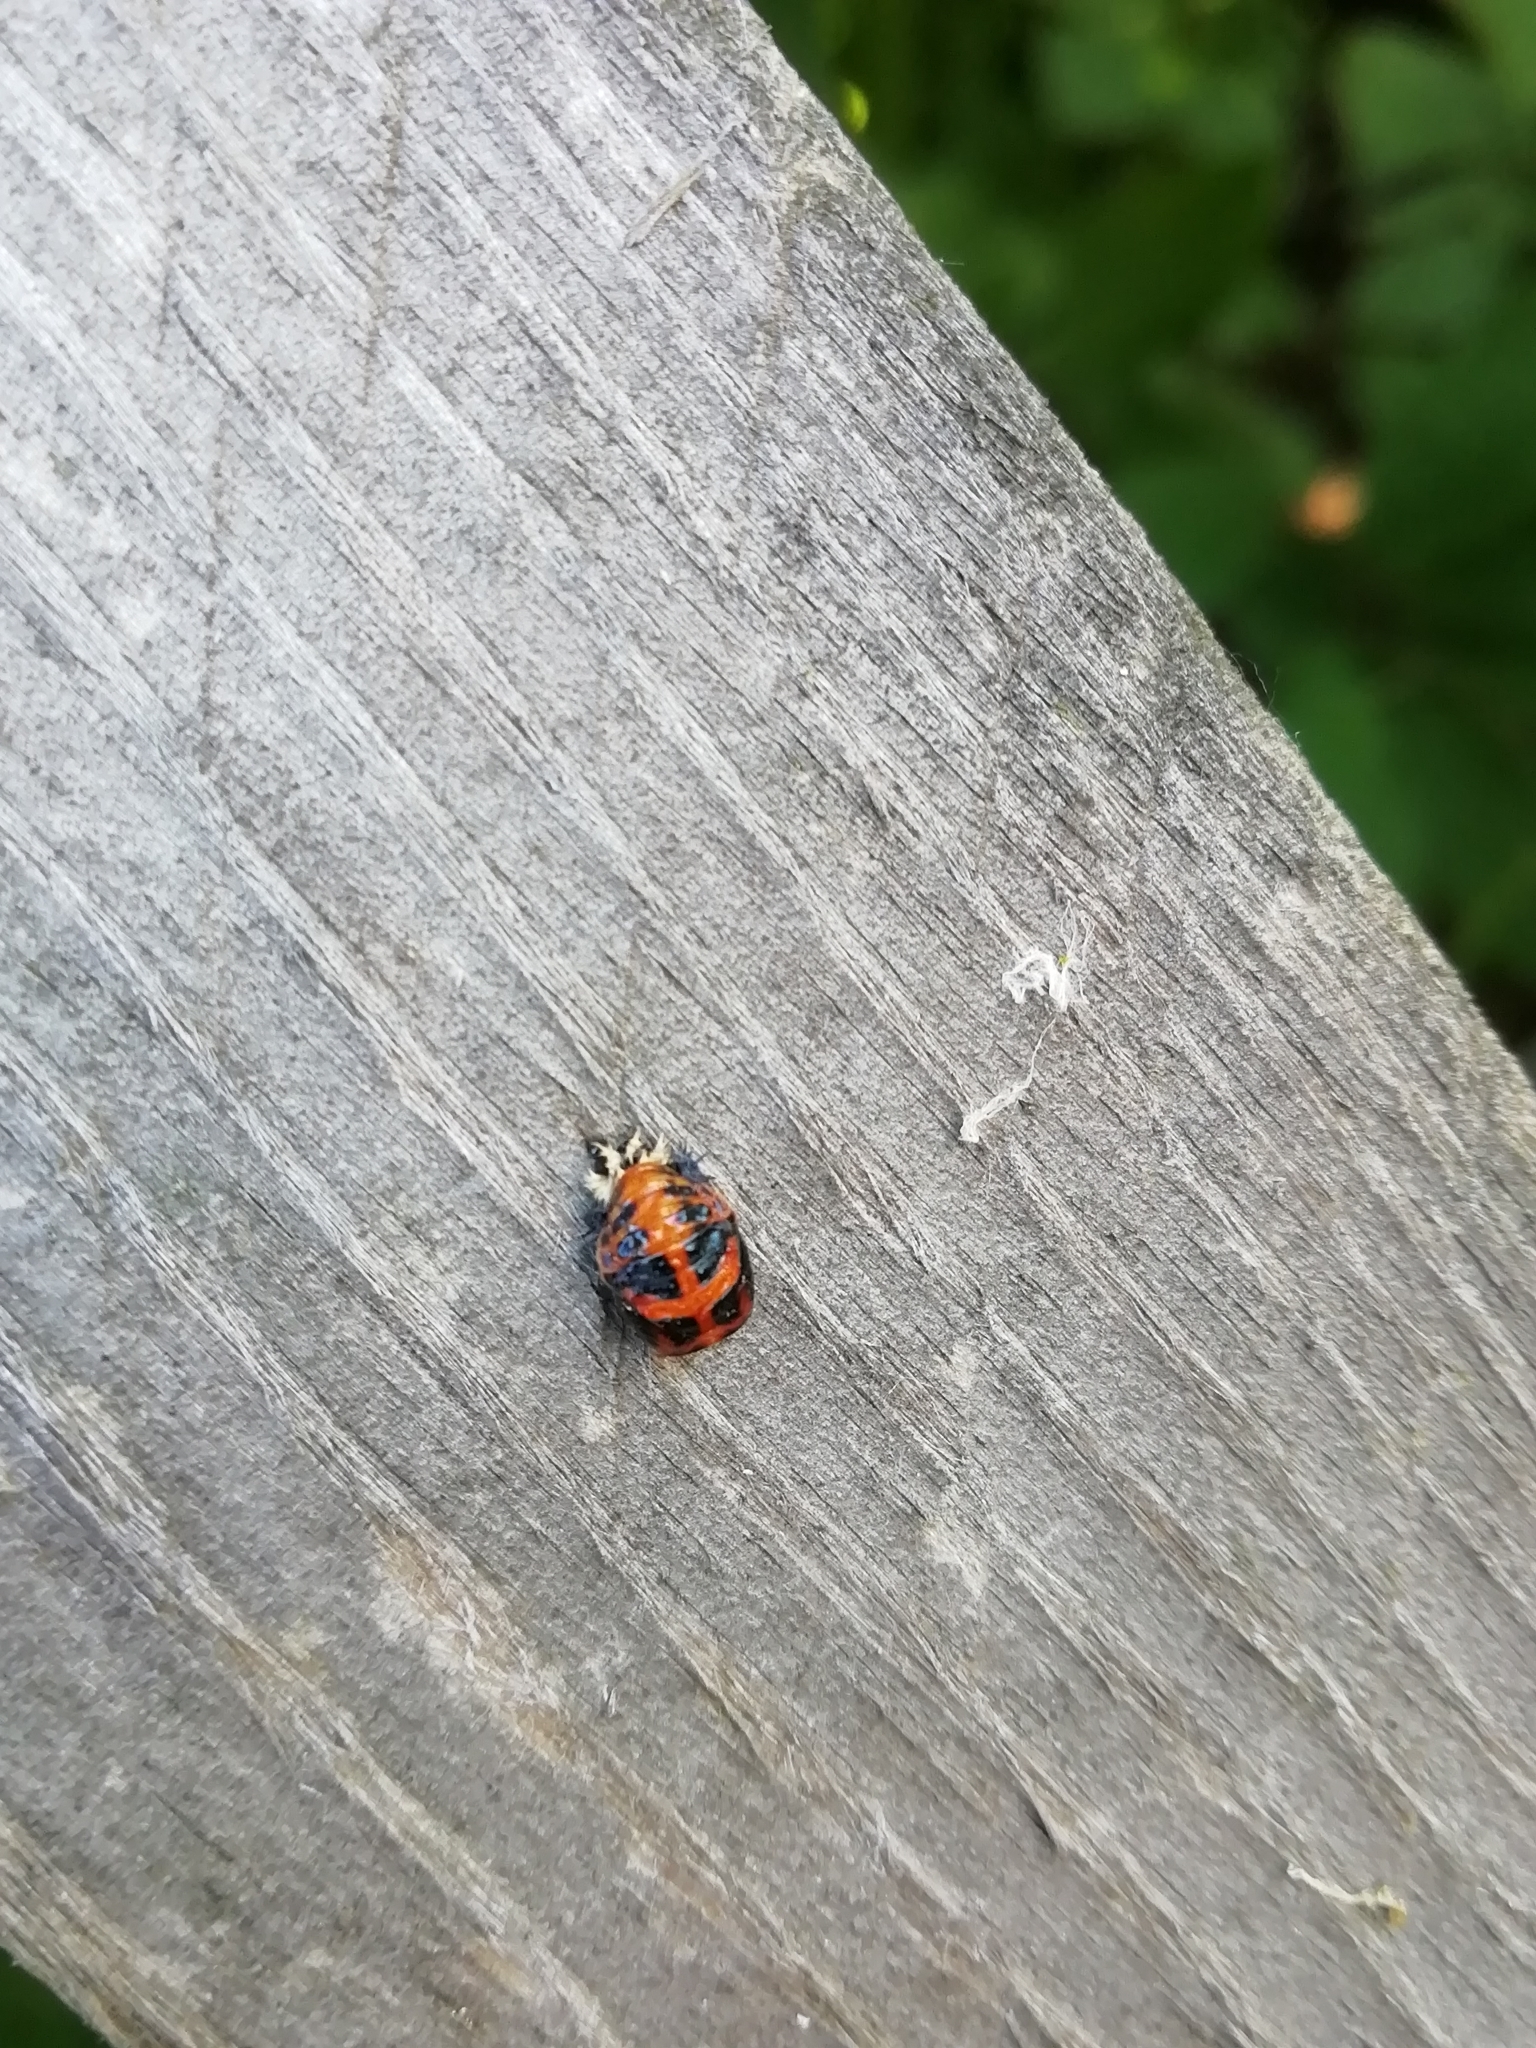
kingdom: Animalia
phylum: Arthropoda
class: Insecta
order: Coleoptera
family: Coccinellidae
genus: Harmonia
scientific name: Harmonia axyridis
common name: Harlequin ladybird
